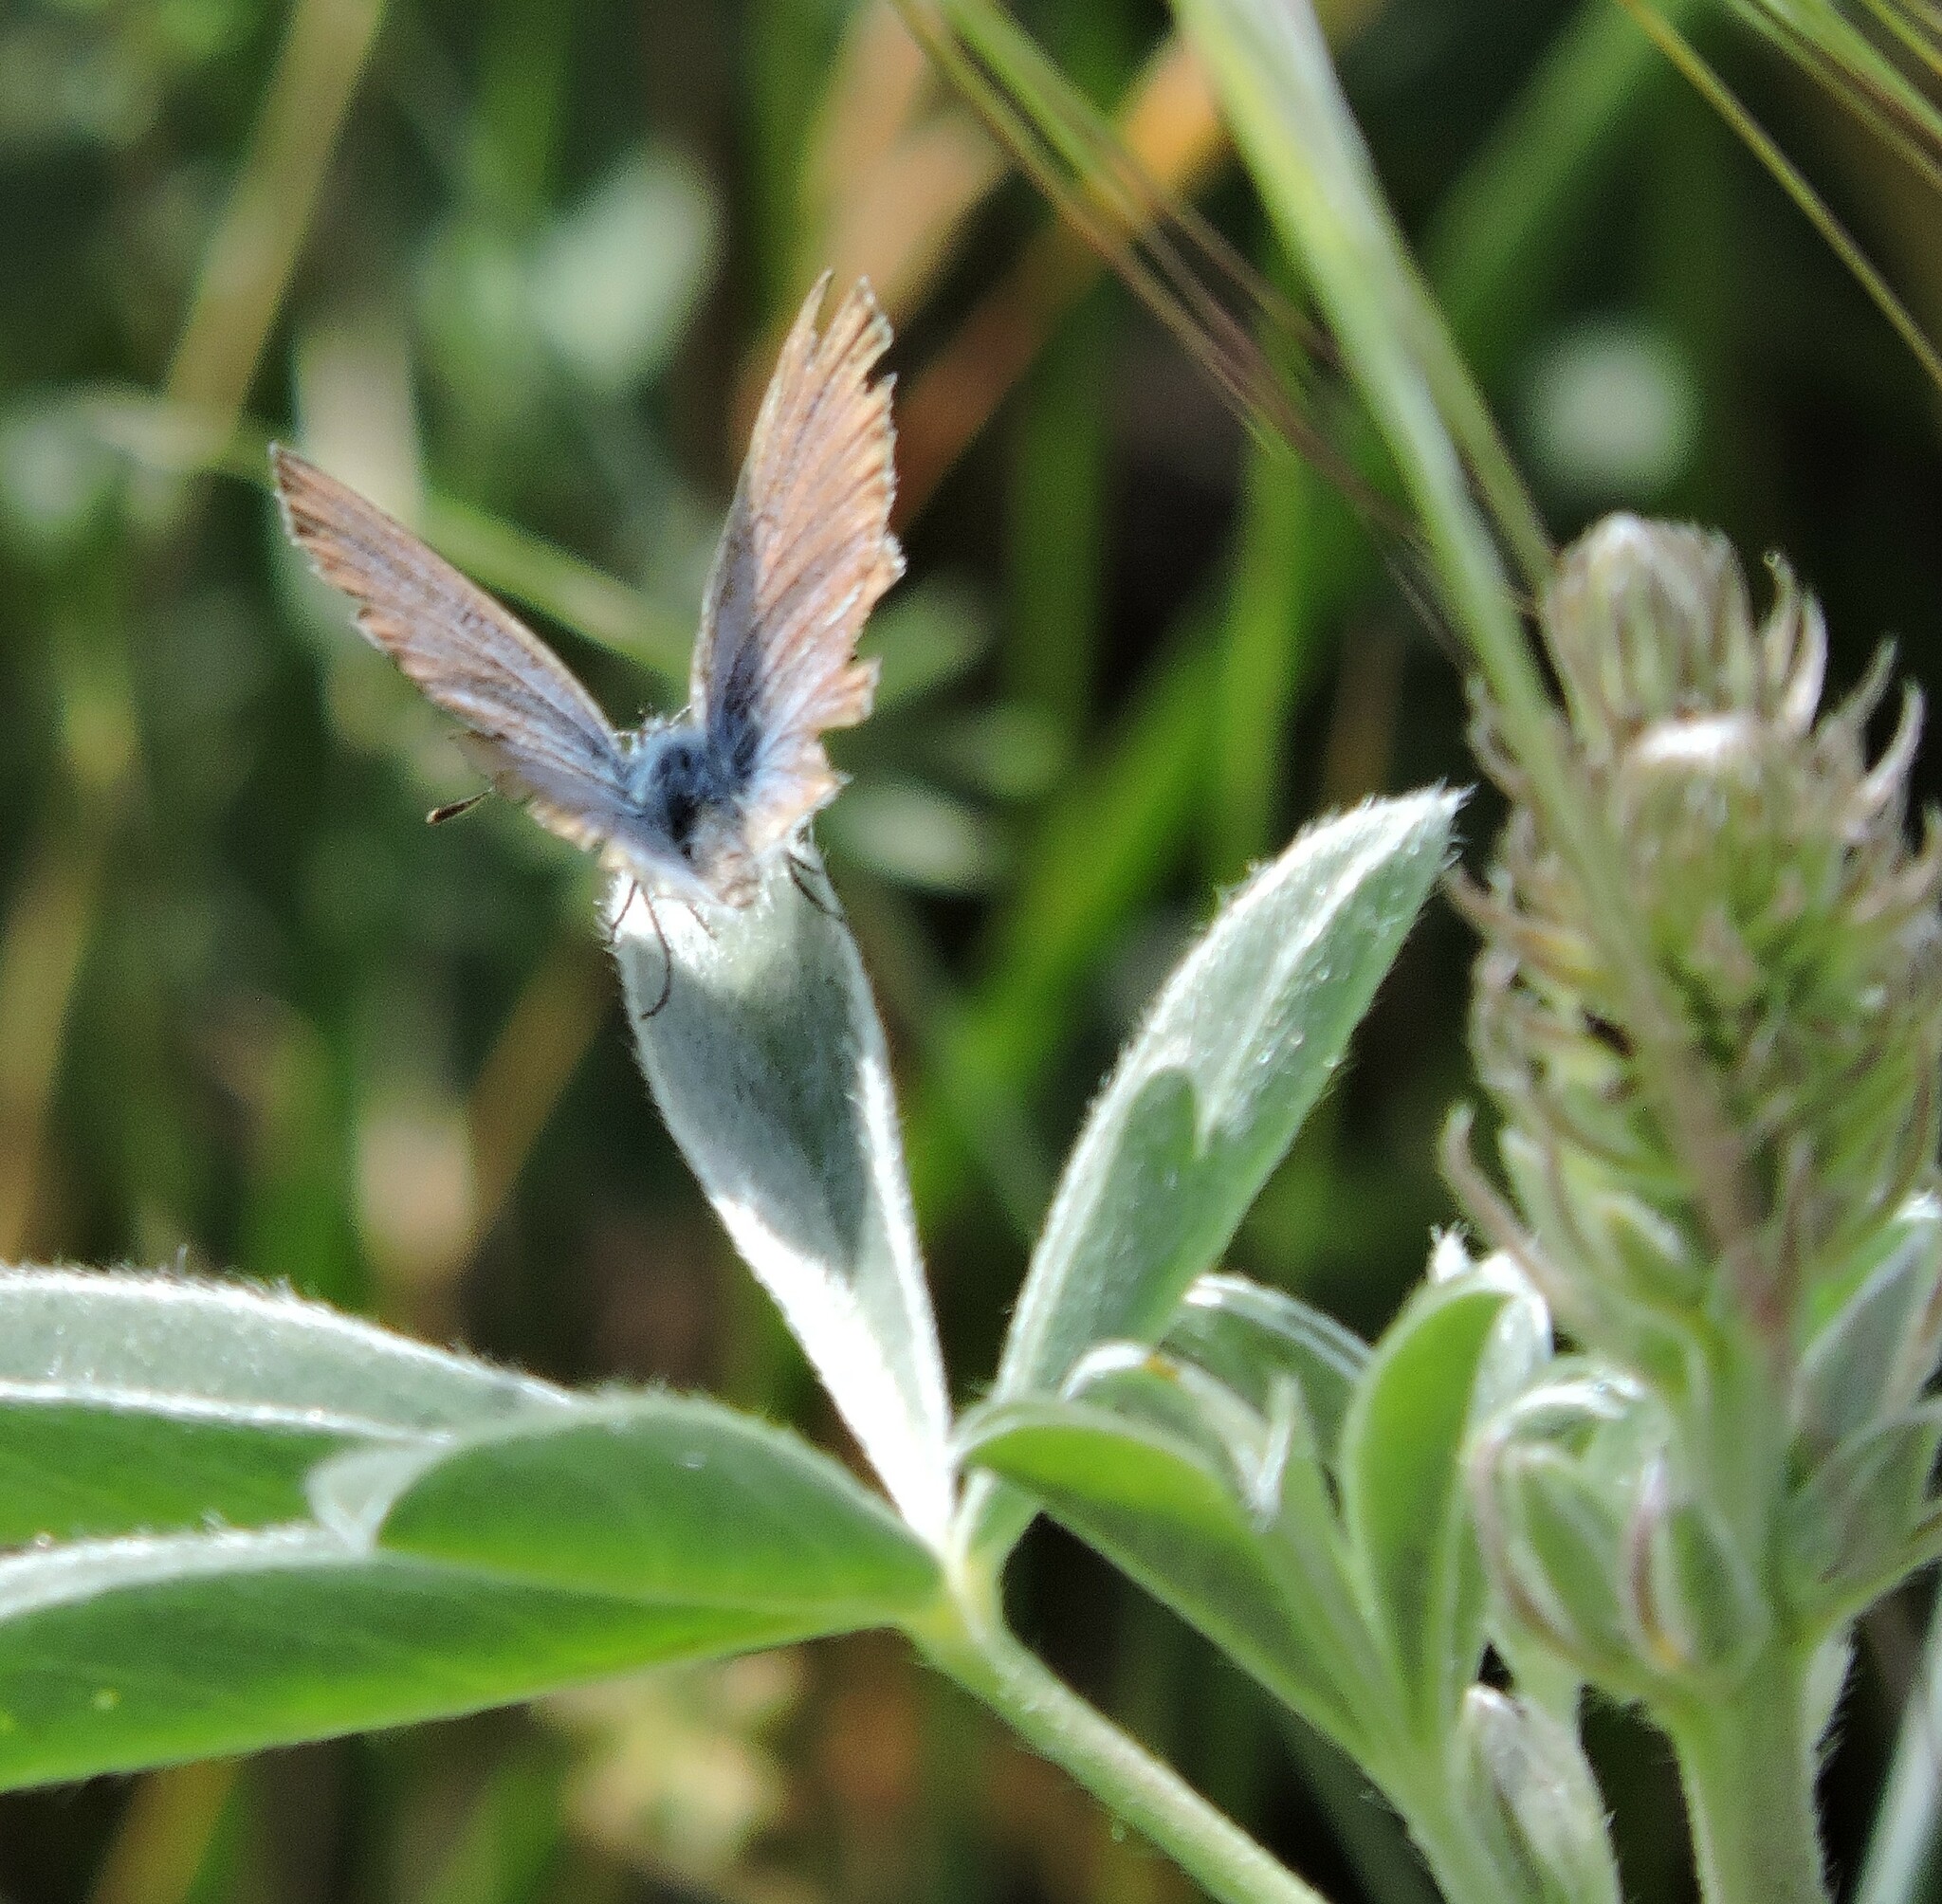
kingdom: Animalia
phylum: Arthropoda
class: Insecta
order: Lepidoptera
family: Lycaenidae
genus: Icaricia
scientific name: Icaricia icarioides
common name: Boisduval's blue
